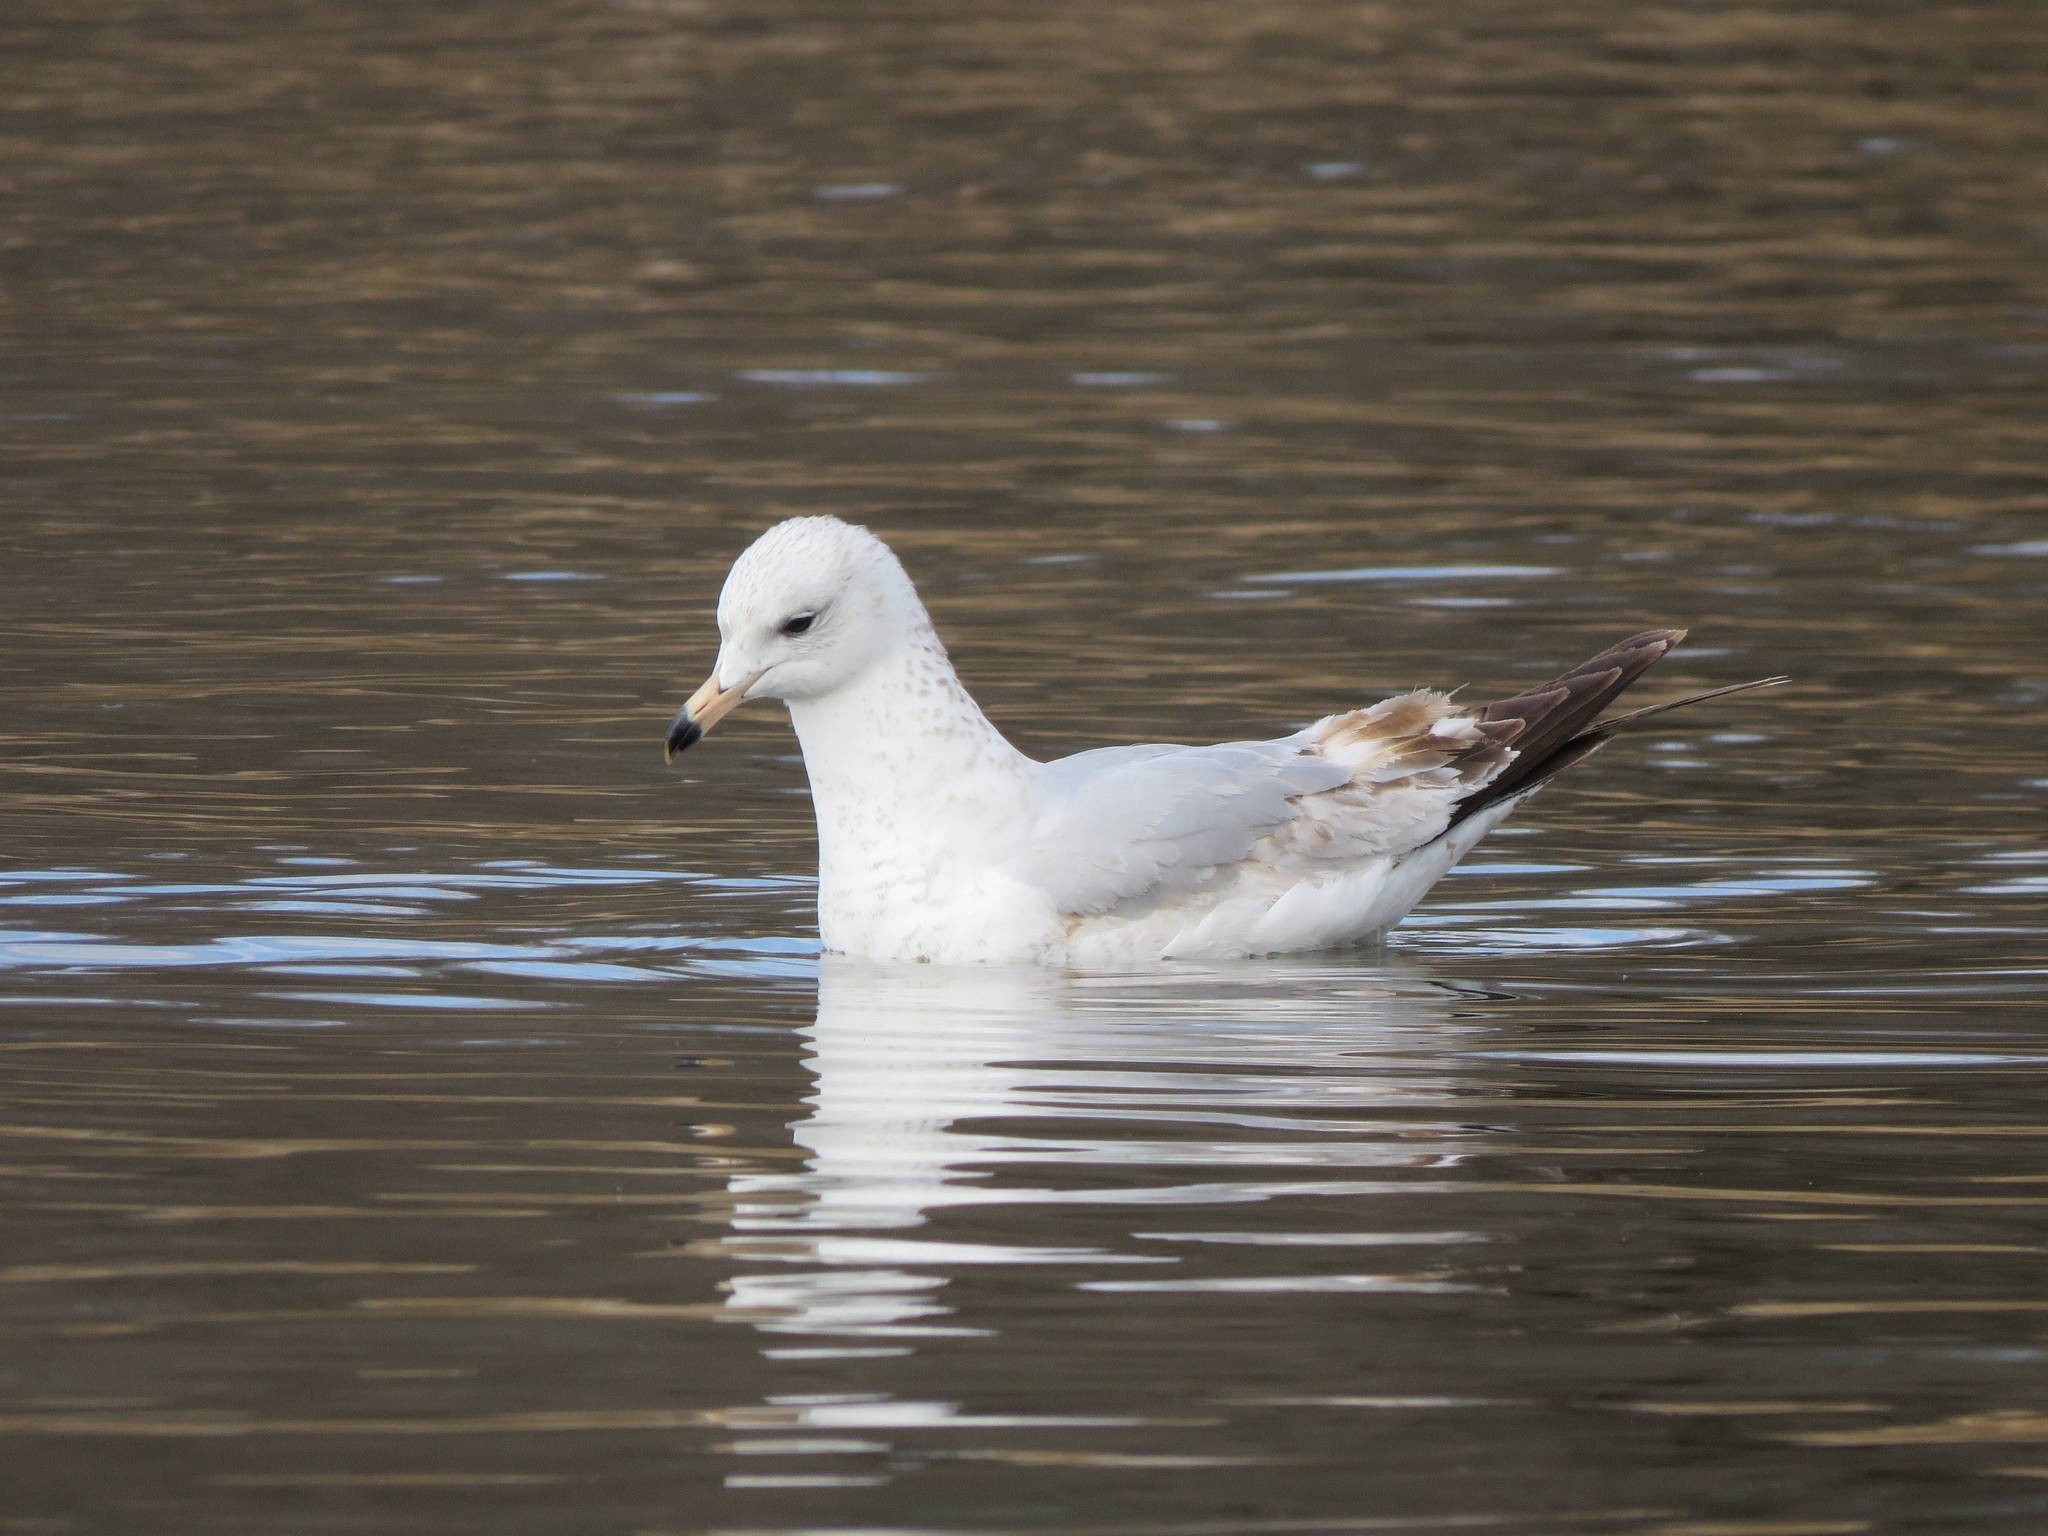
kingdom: Animalia
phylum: Chordata
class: Aves
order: Charadriiformes
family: Laridae
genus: Larus
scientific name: Larus delawarensis
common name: Ring-billed gull
